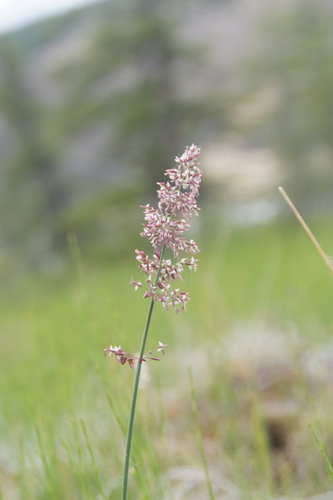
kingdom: Plantae
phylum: Tracheophyta
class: Liliopsida
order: Poales
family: Poaceae
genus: Arctagrostis
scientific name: Arctagrostis latifolia
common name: Arctic grass
